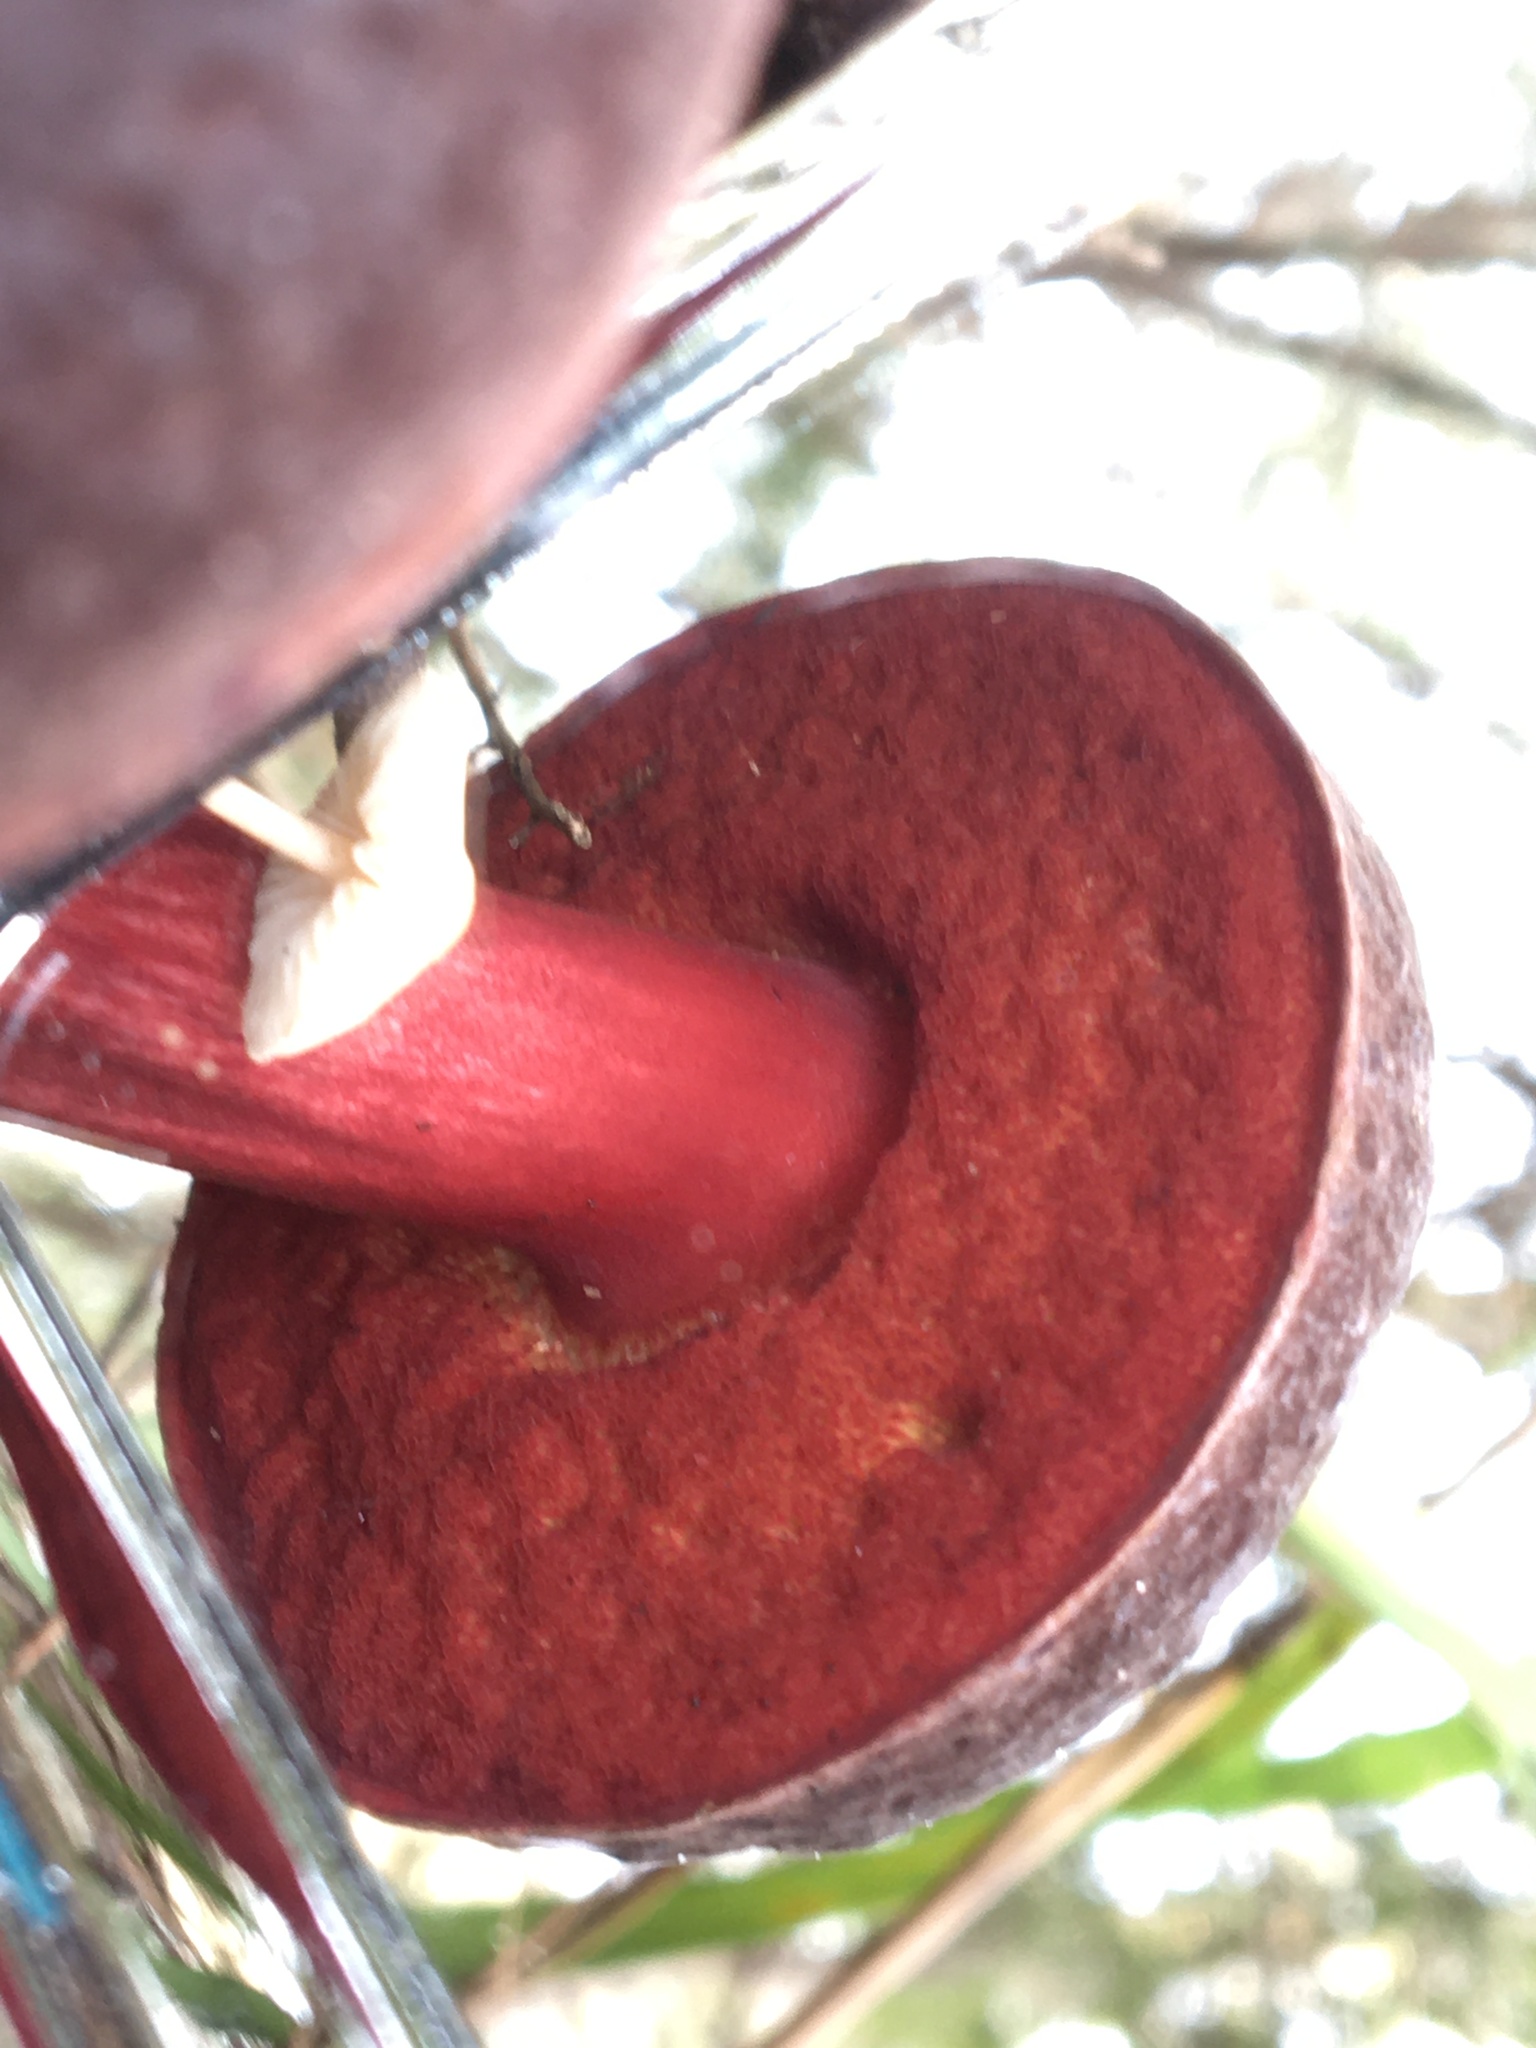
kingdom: Fungi
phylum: Basidiomycota
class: Agaricomycetes
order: Boletales
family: Boletaceae
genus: Boletus
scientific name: Boletus barragensis
